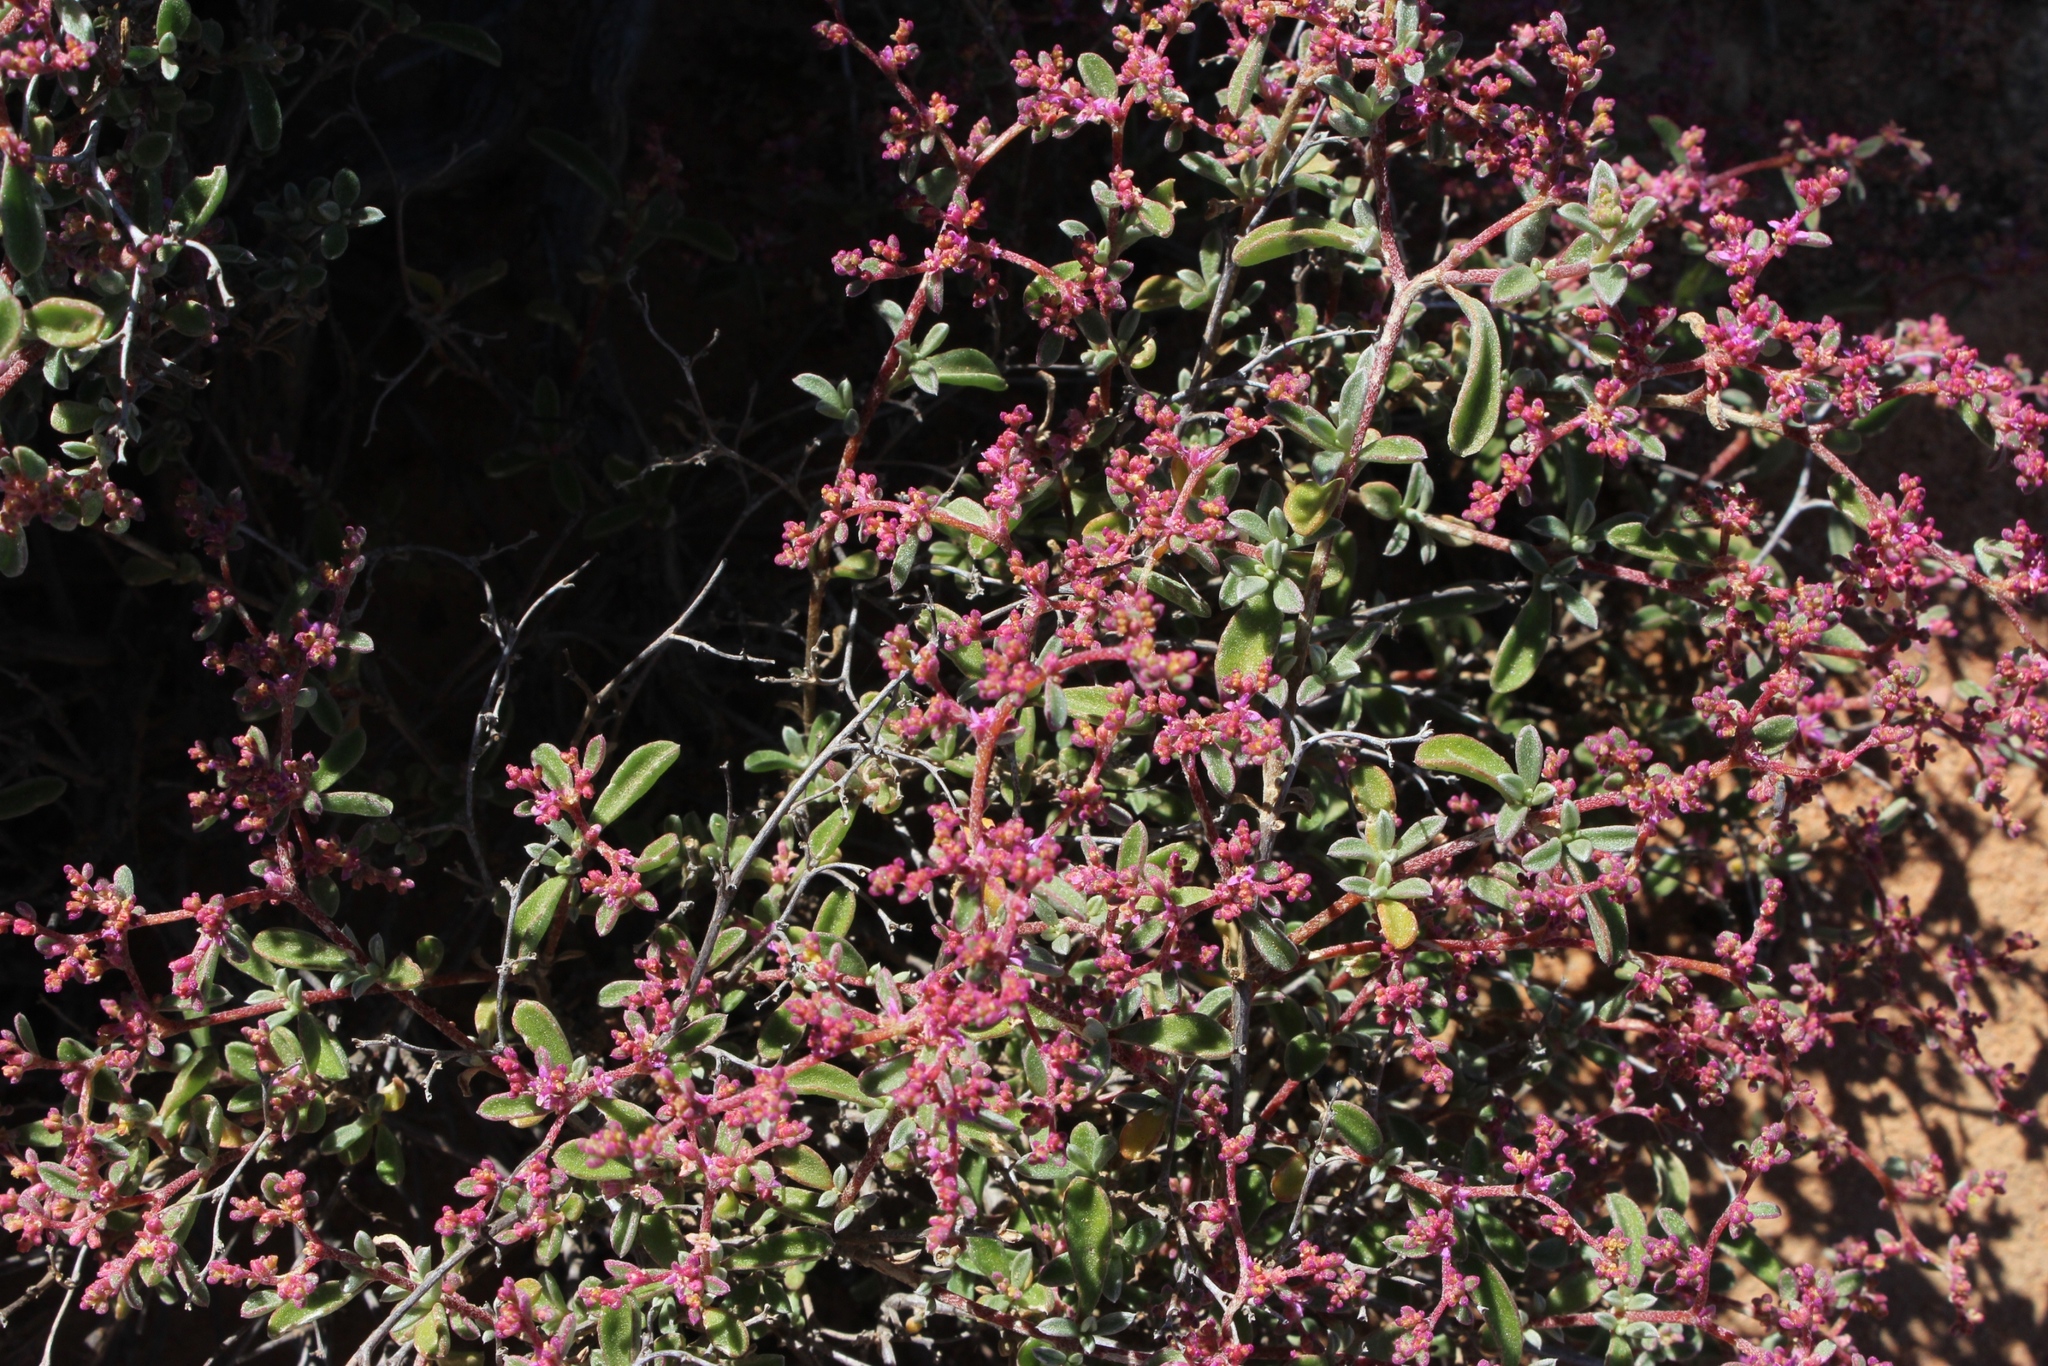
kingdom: Plantae
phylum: Tracheophyta
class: Magnoliopsida
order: Caryophyllales
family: Aizoaceae
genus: Aizoon
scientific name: Aizoon sarcophyllum
